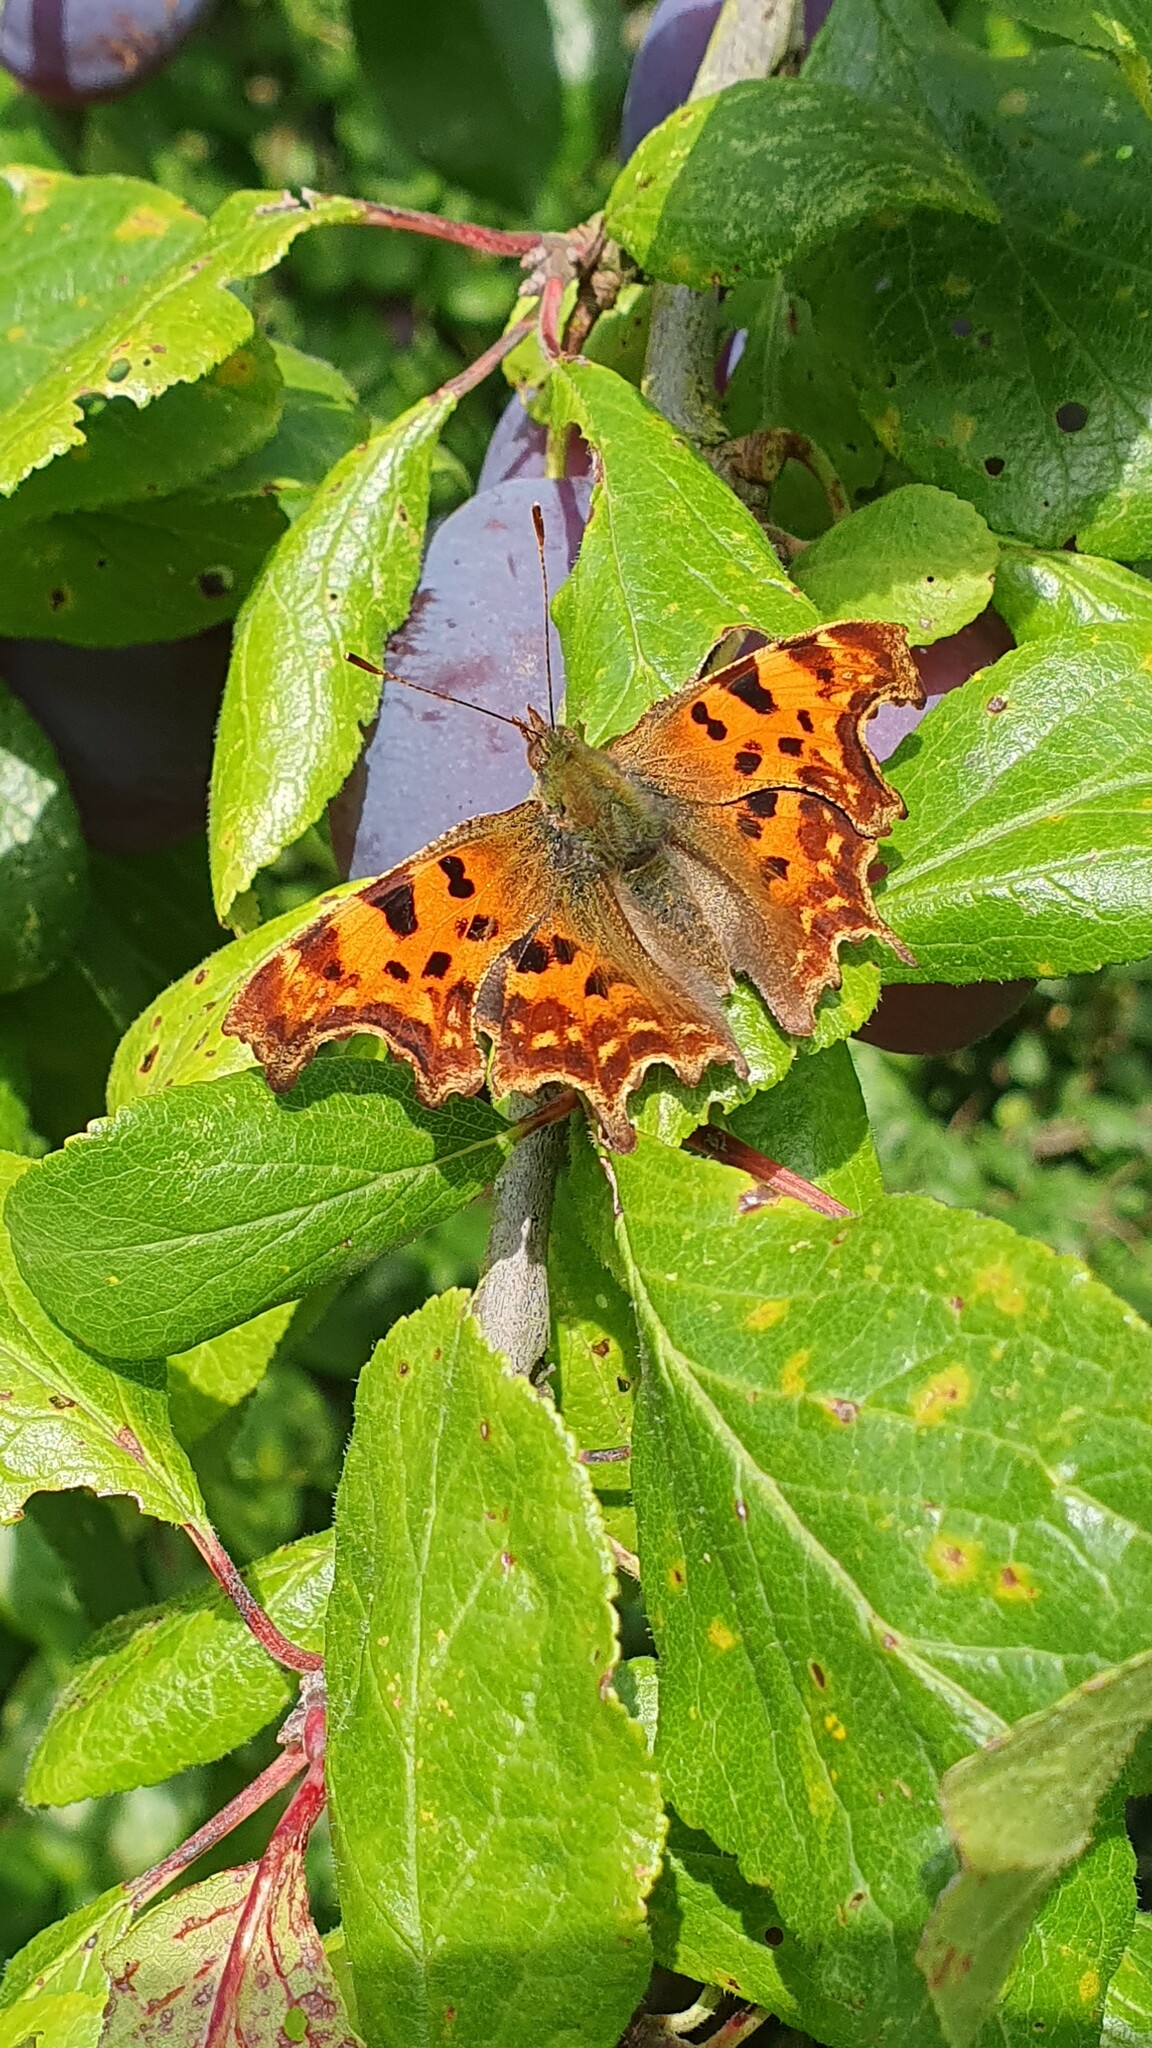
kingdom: Animalia
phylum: Arthropoda
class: Insecta
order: Lepidoptera
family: Nymphalidae
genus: Polygonia
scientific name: Polygonia c-album
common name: Comma
